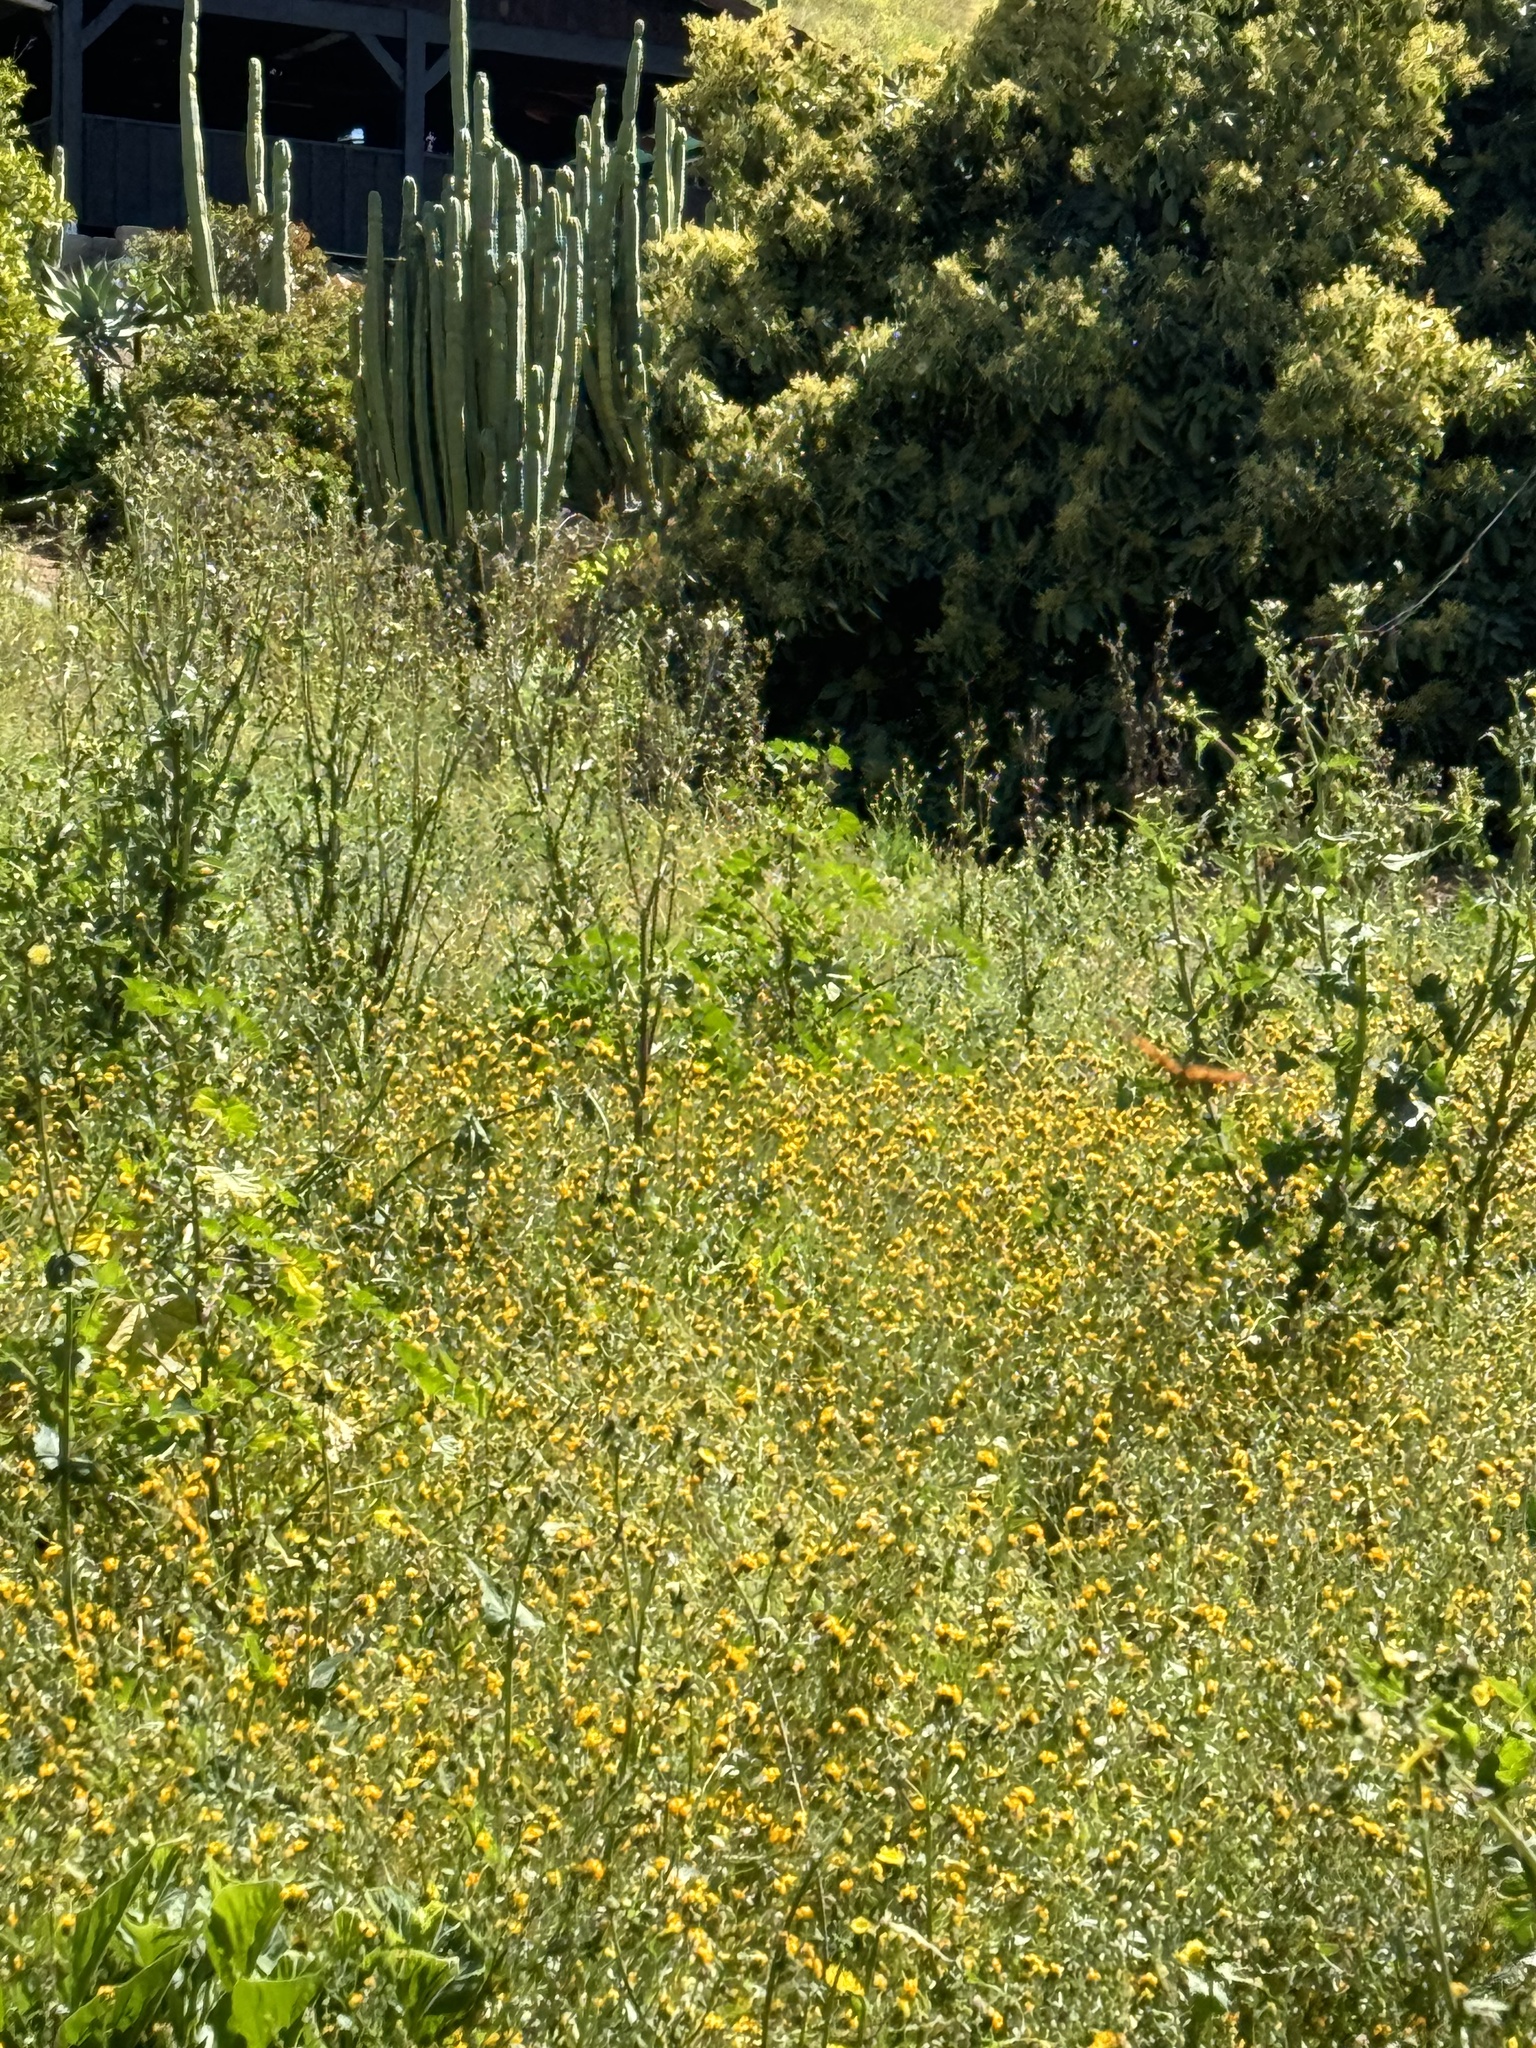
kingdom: Animalia
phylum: Arthropoda
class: Insecta
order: Lepidoptera
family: Nymphalidae
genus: Danaus
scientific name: Danaus plexippus
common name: Monarch
